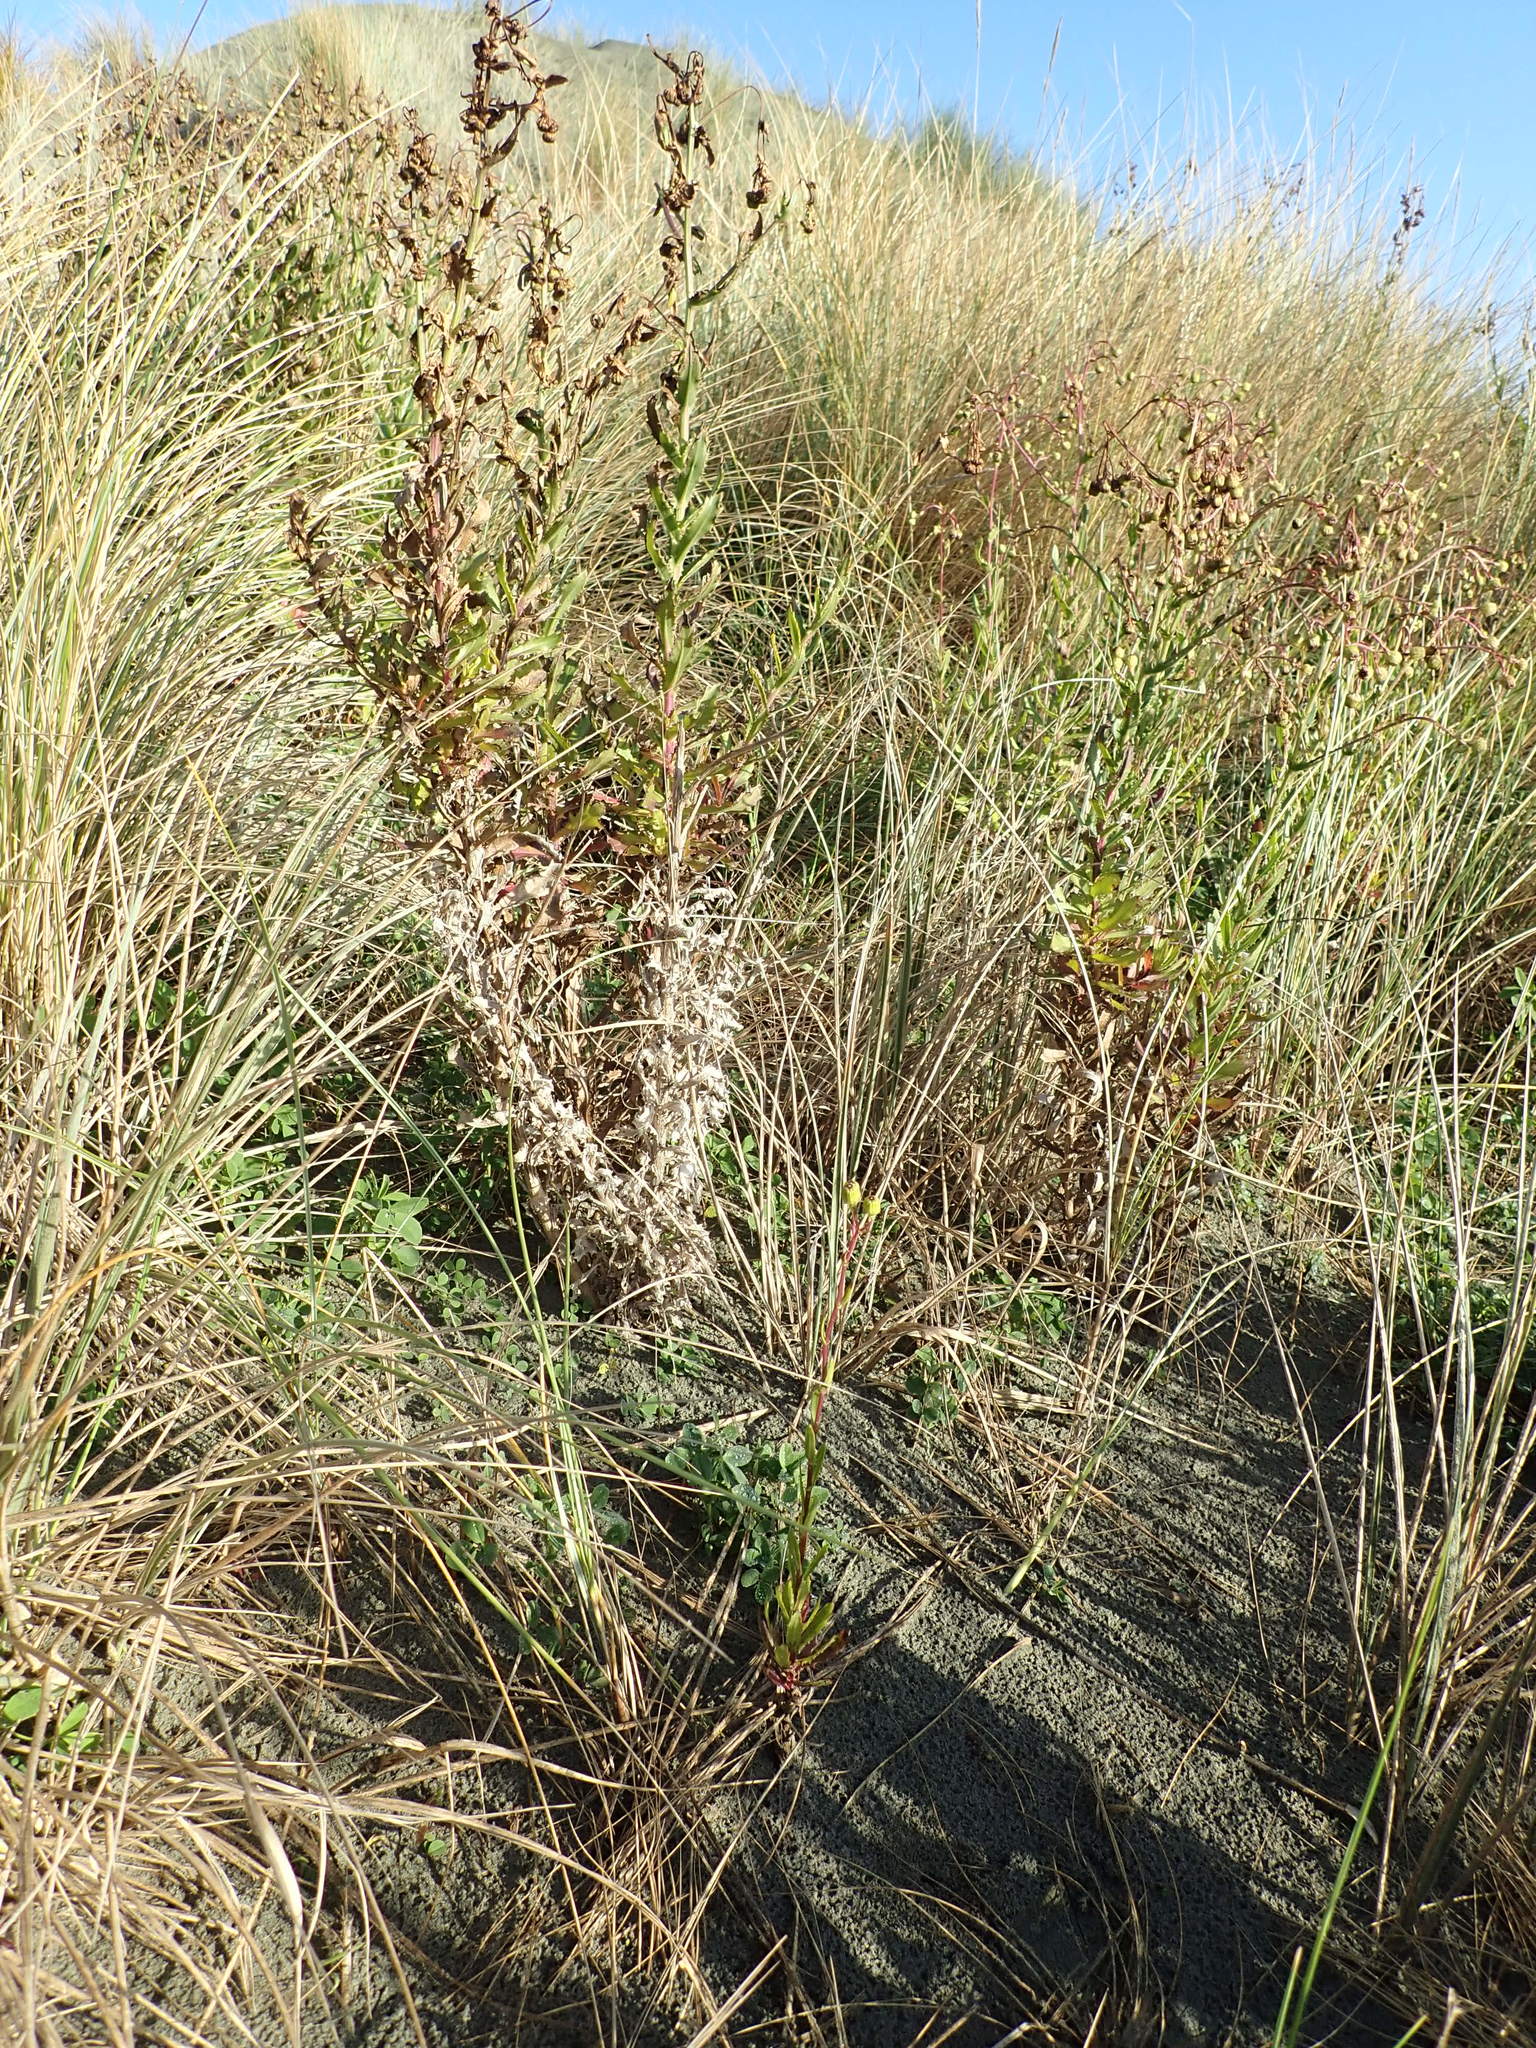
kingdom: Plantae
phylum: Tracheophyta
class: Magnoliopsida
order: Asterales
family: Asteraceae
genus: Senecio
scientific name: Senecio glastifolius
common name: Woad-leaved ragwort
